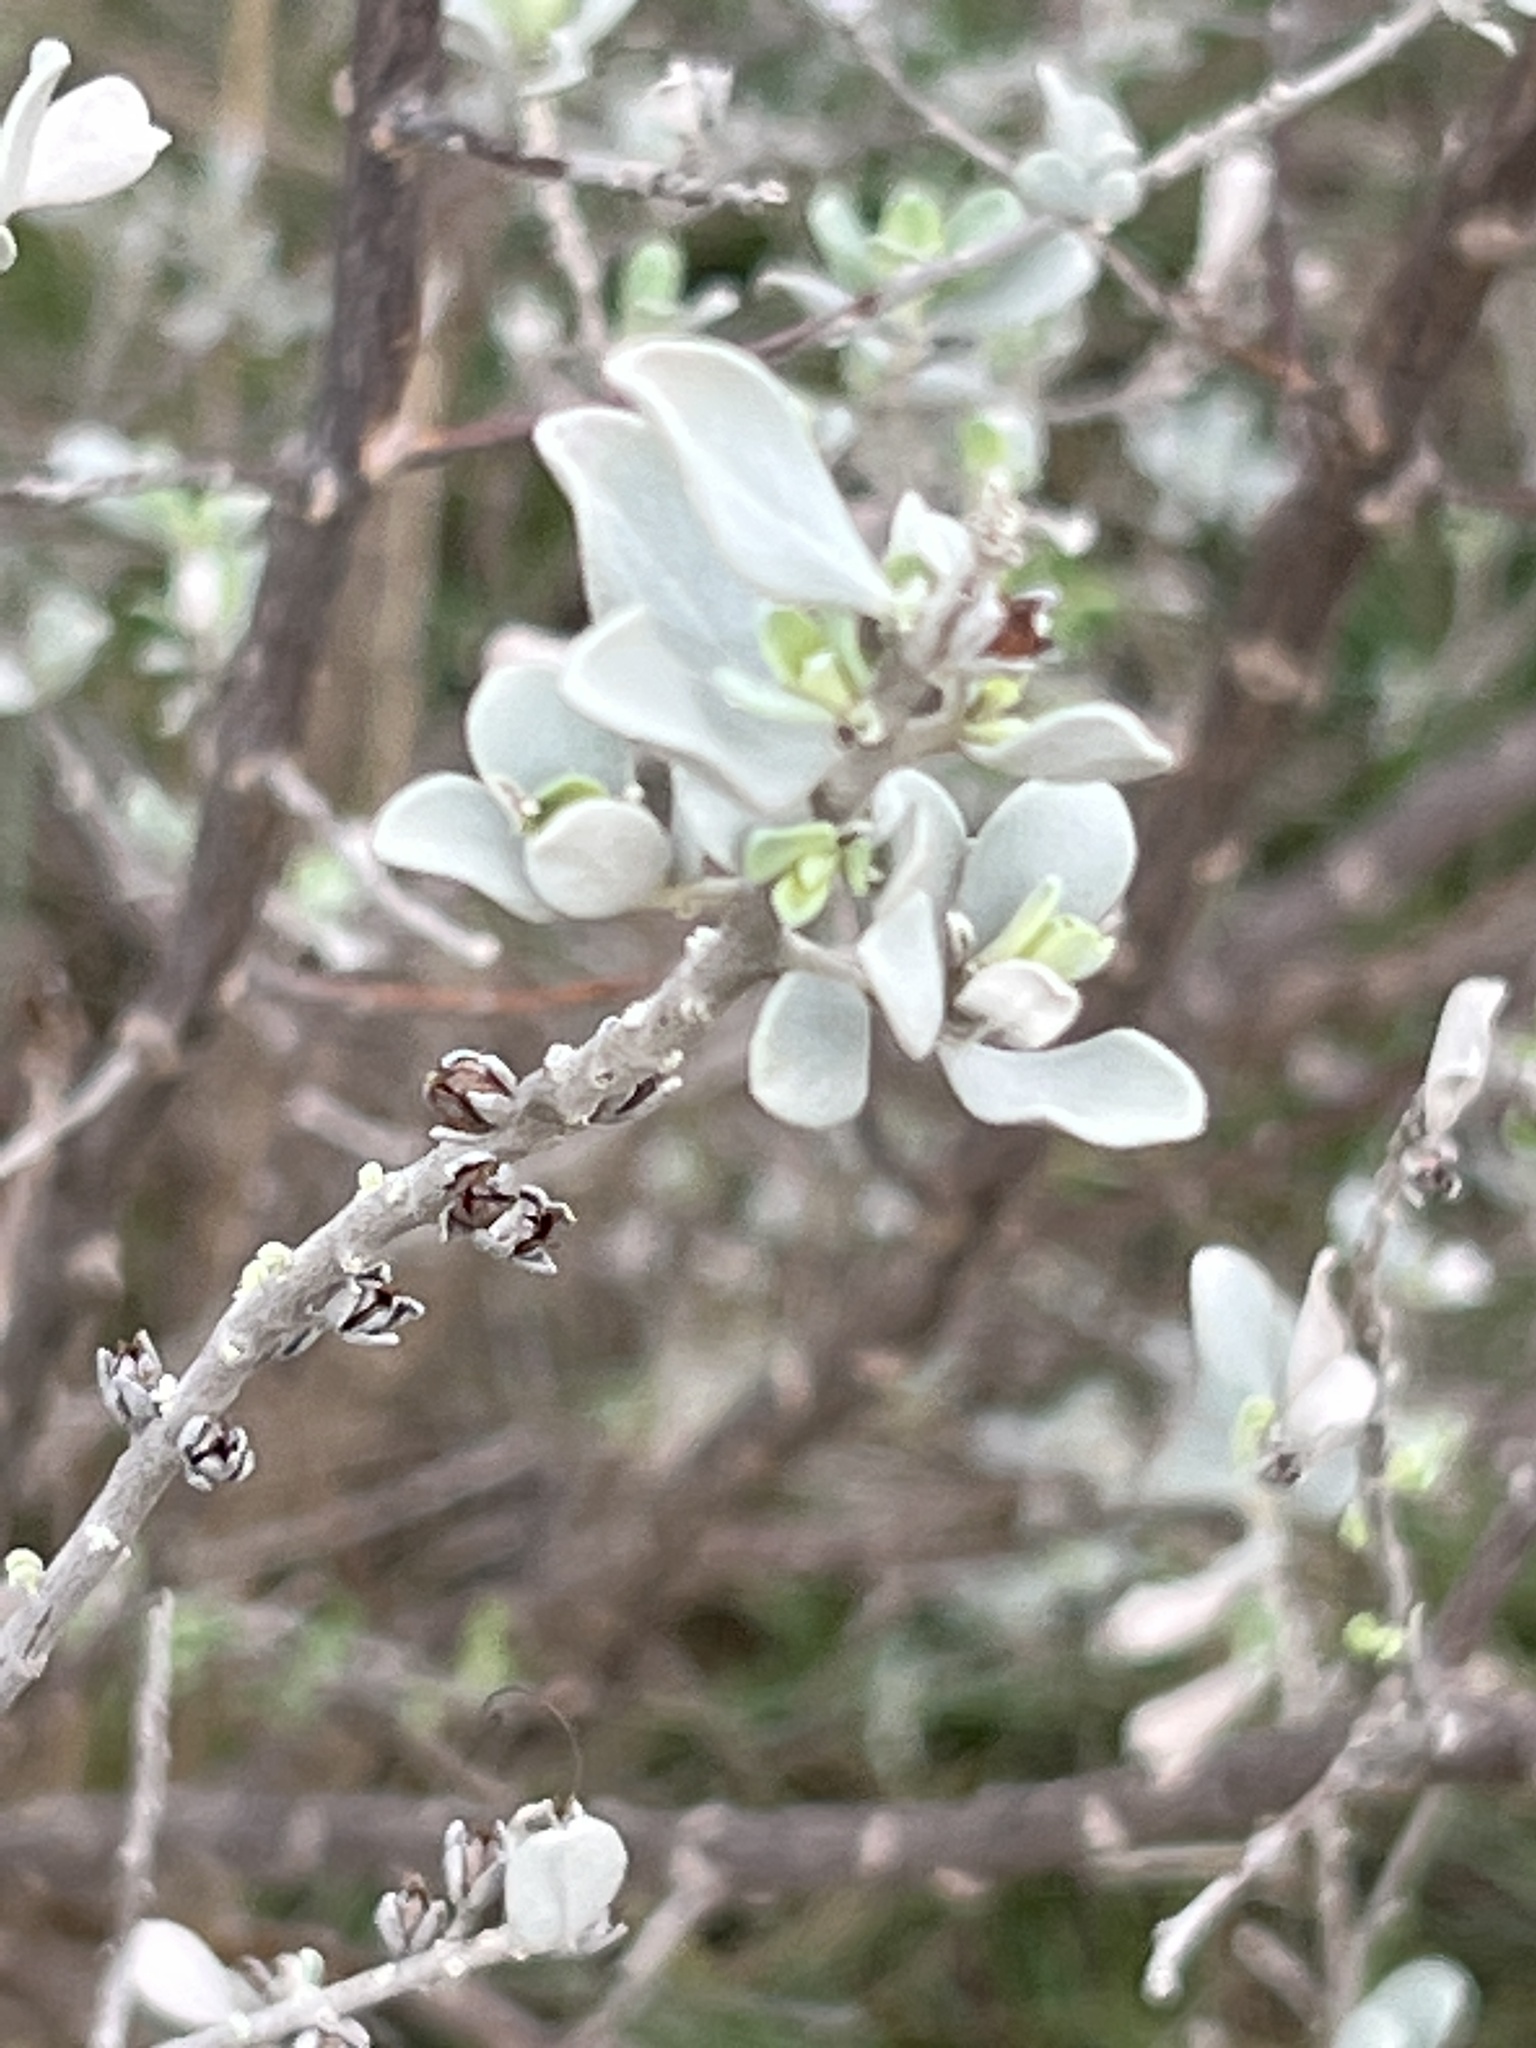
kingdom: Plantae
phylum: Tracheophyta
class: Magnoliopsida
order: Lamiales
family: Scrophulariaceae
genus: Leucophyllum
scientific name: Leucophyllum frutescens
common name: Texas silverleaf
